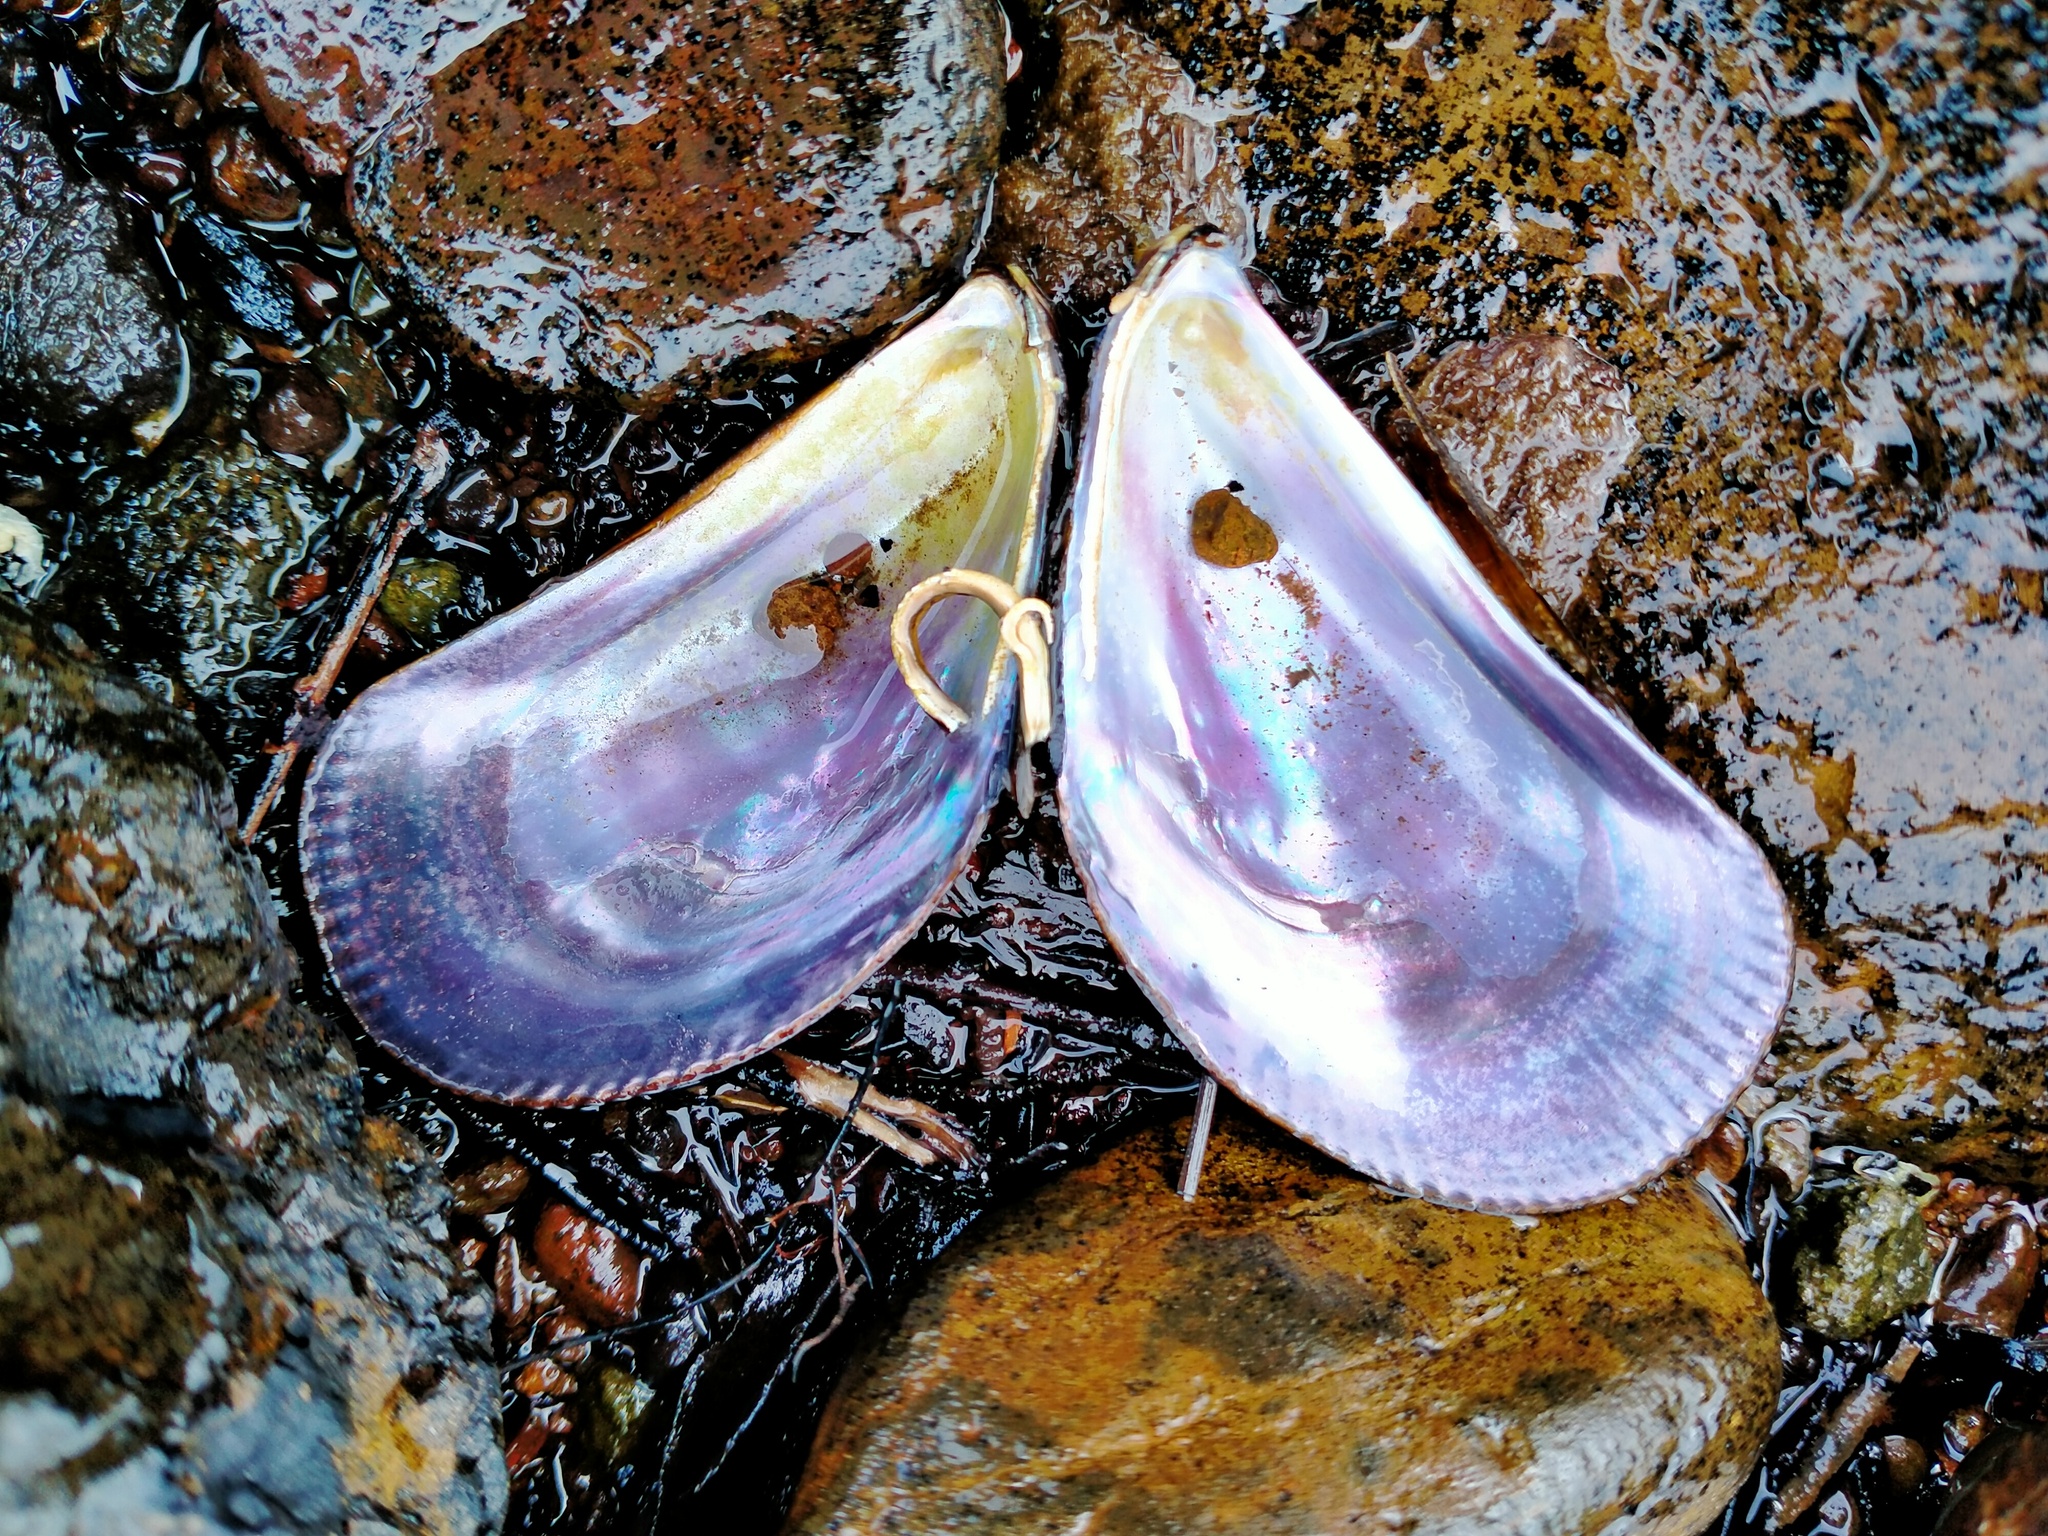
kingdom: Animalia
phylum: Mollusca
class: Bivalvia
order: Mytilida
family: Mytilidae
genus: Aulacomya
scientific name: Aulacomya maoriana
